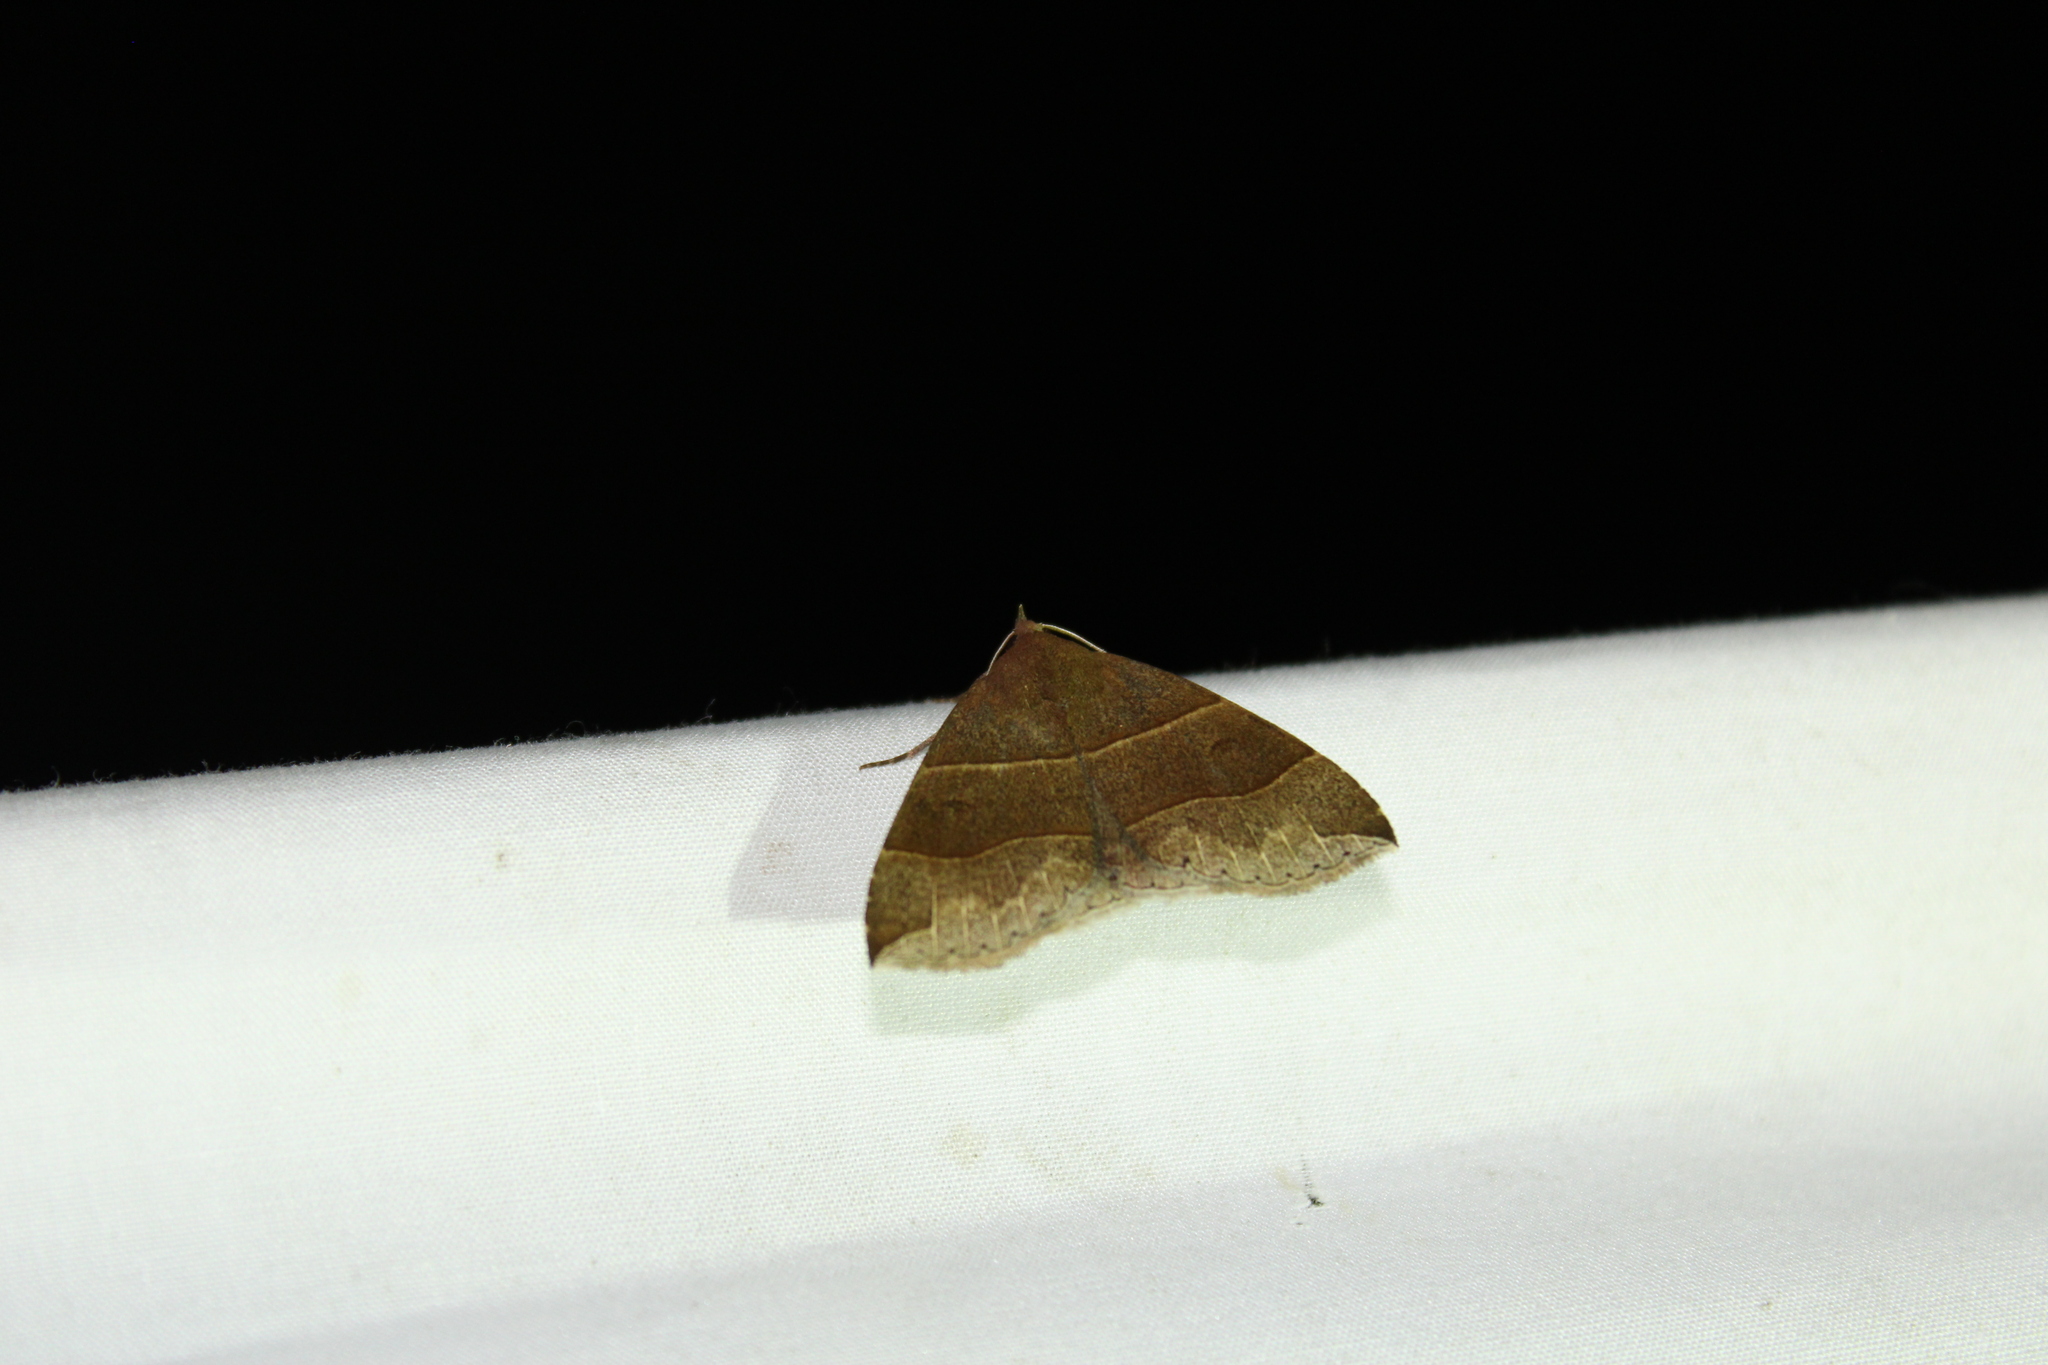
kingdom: Animalia
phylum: Arthropoda
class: Insecta
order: Lepidoptera
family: Erebidae
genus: Parallelia
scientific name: Parallelia bistriaris
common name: Maple looper moth
